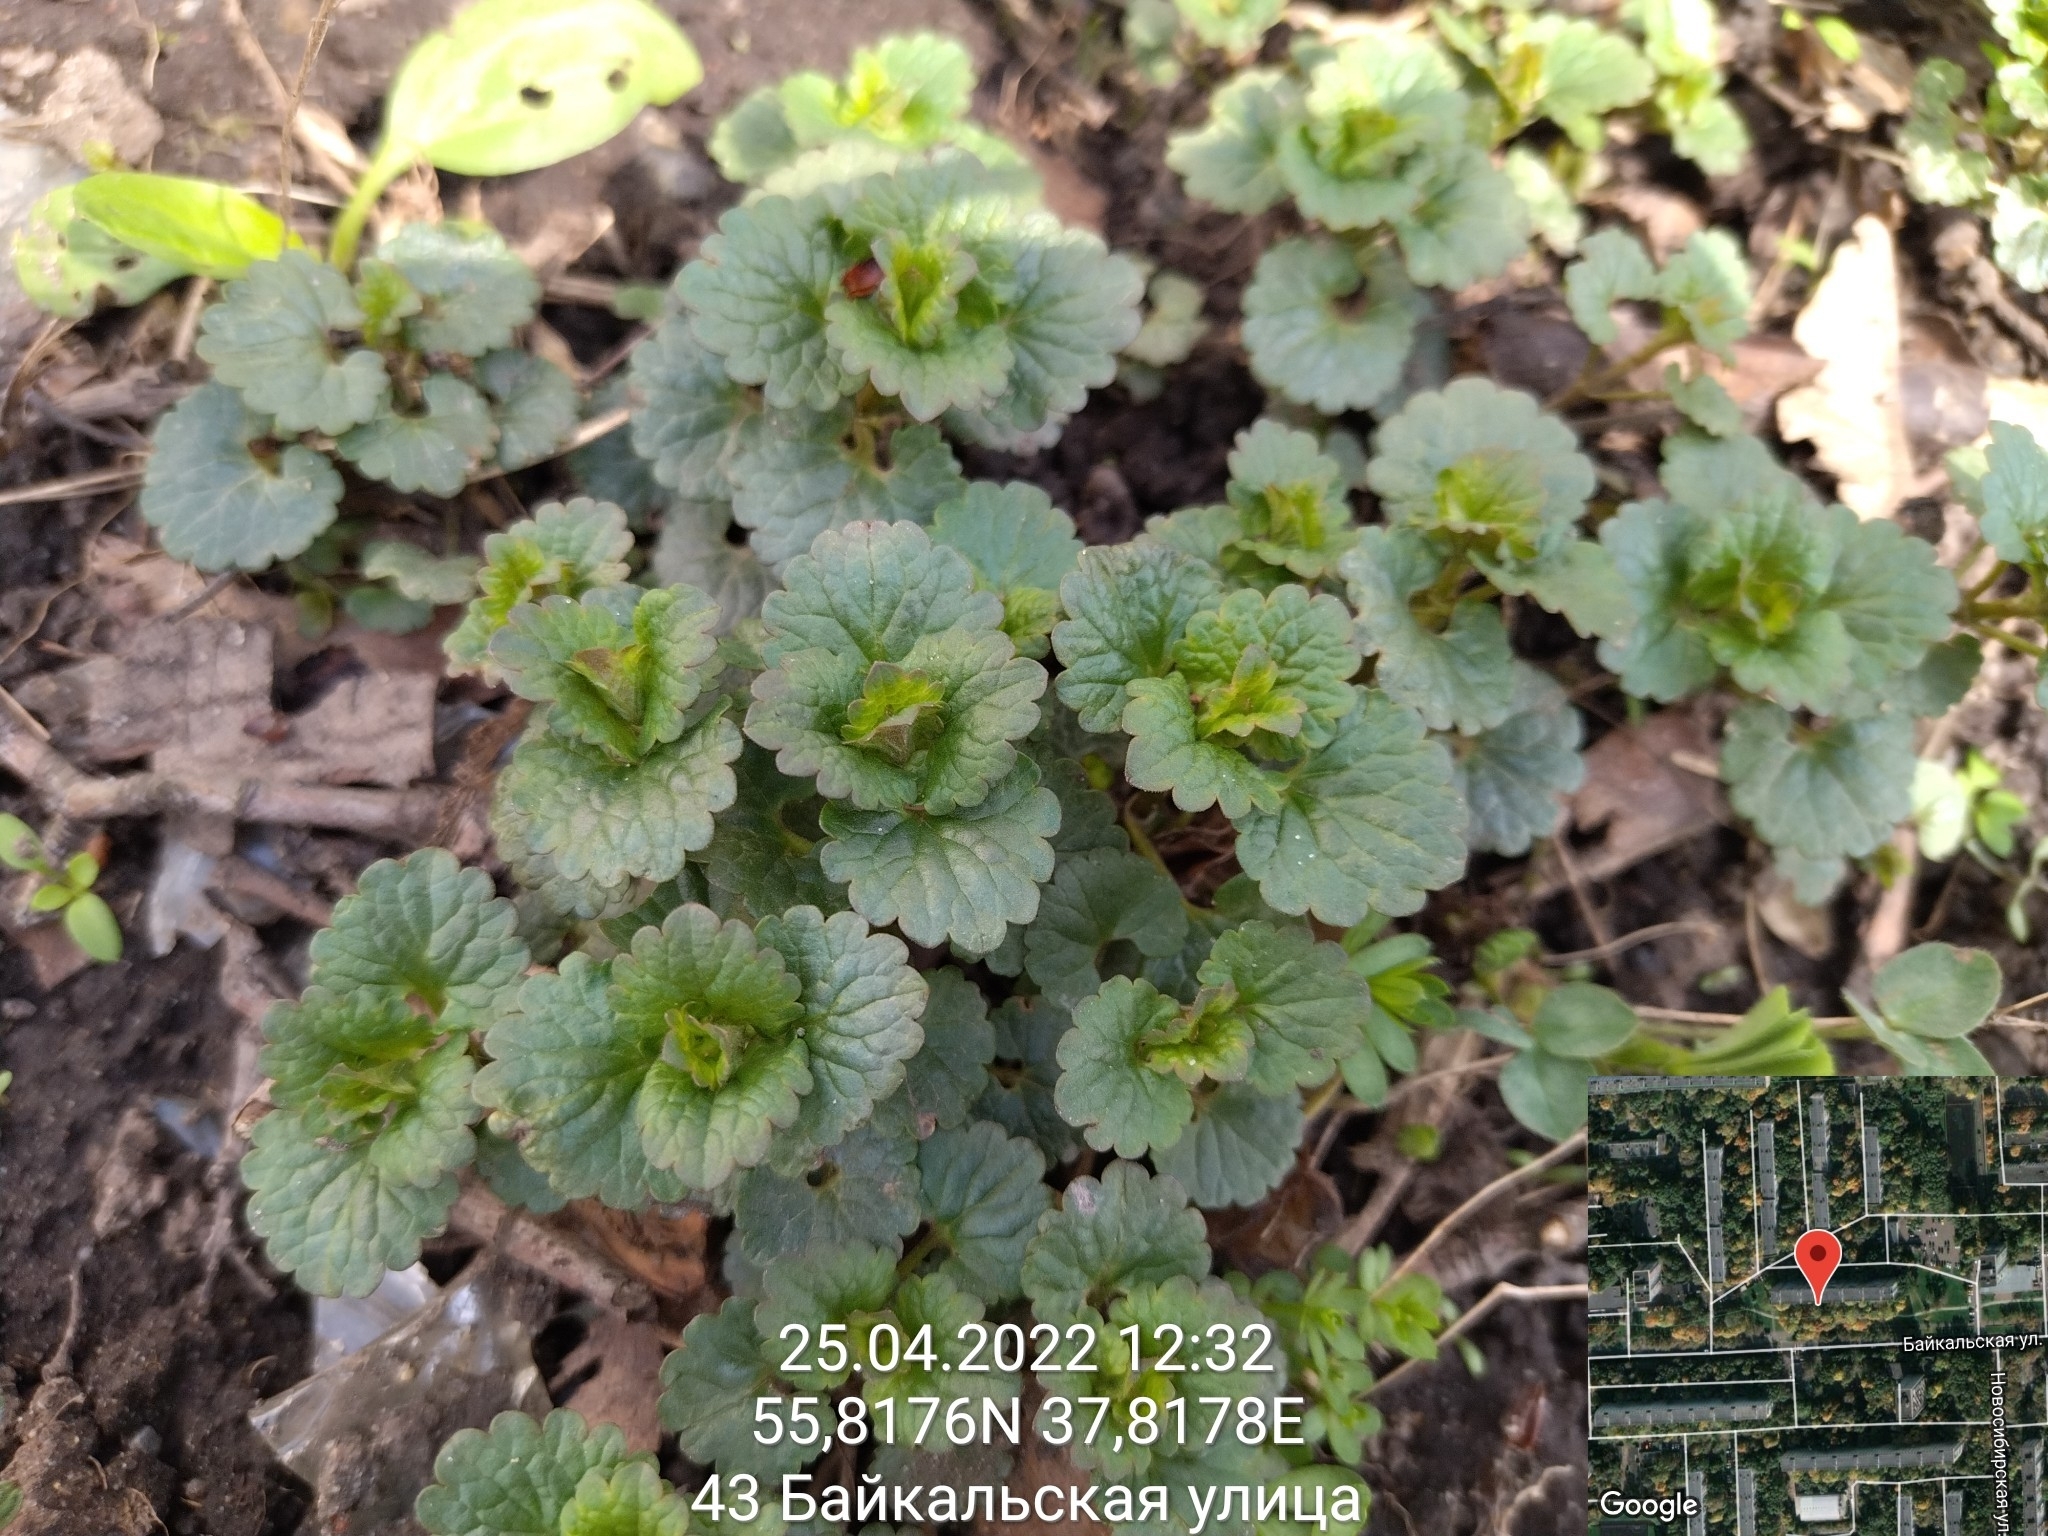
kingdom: Plantae
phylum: Tracheophyta
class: Magnoliopsida
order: Lamiales
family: Lamiaceae
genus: Glechoma
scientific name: Glechoma hederacea
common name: Ground ivy
